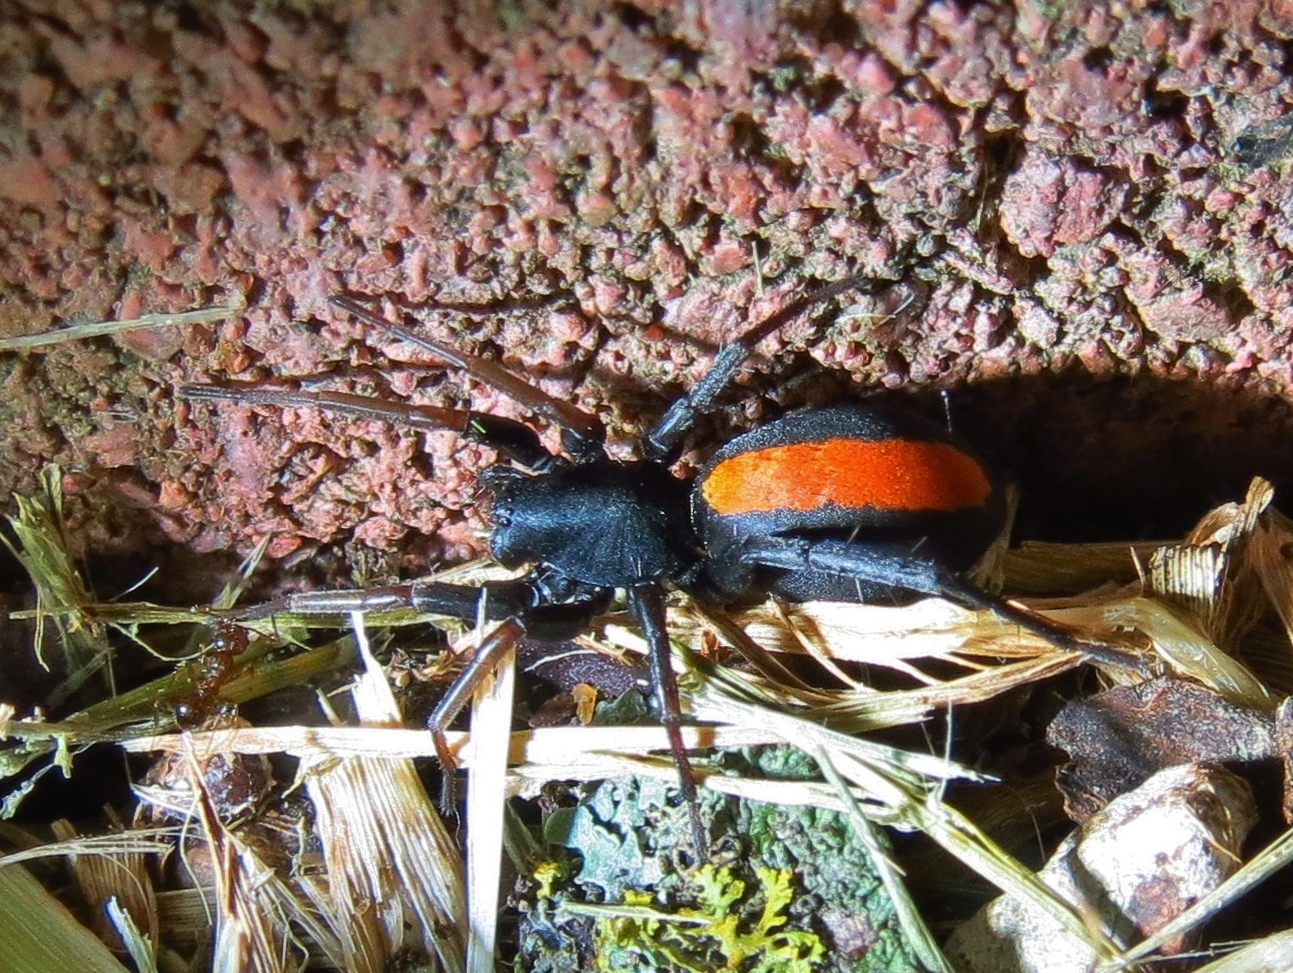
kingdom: Animalia
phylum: Arthropoda
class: Arachnida
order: Araneae
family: Corinnidae
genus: Castianeira
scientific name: Castianeira crocata
